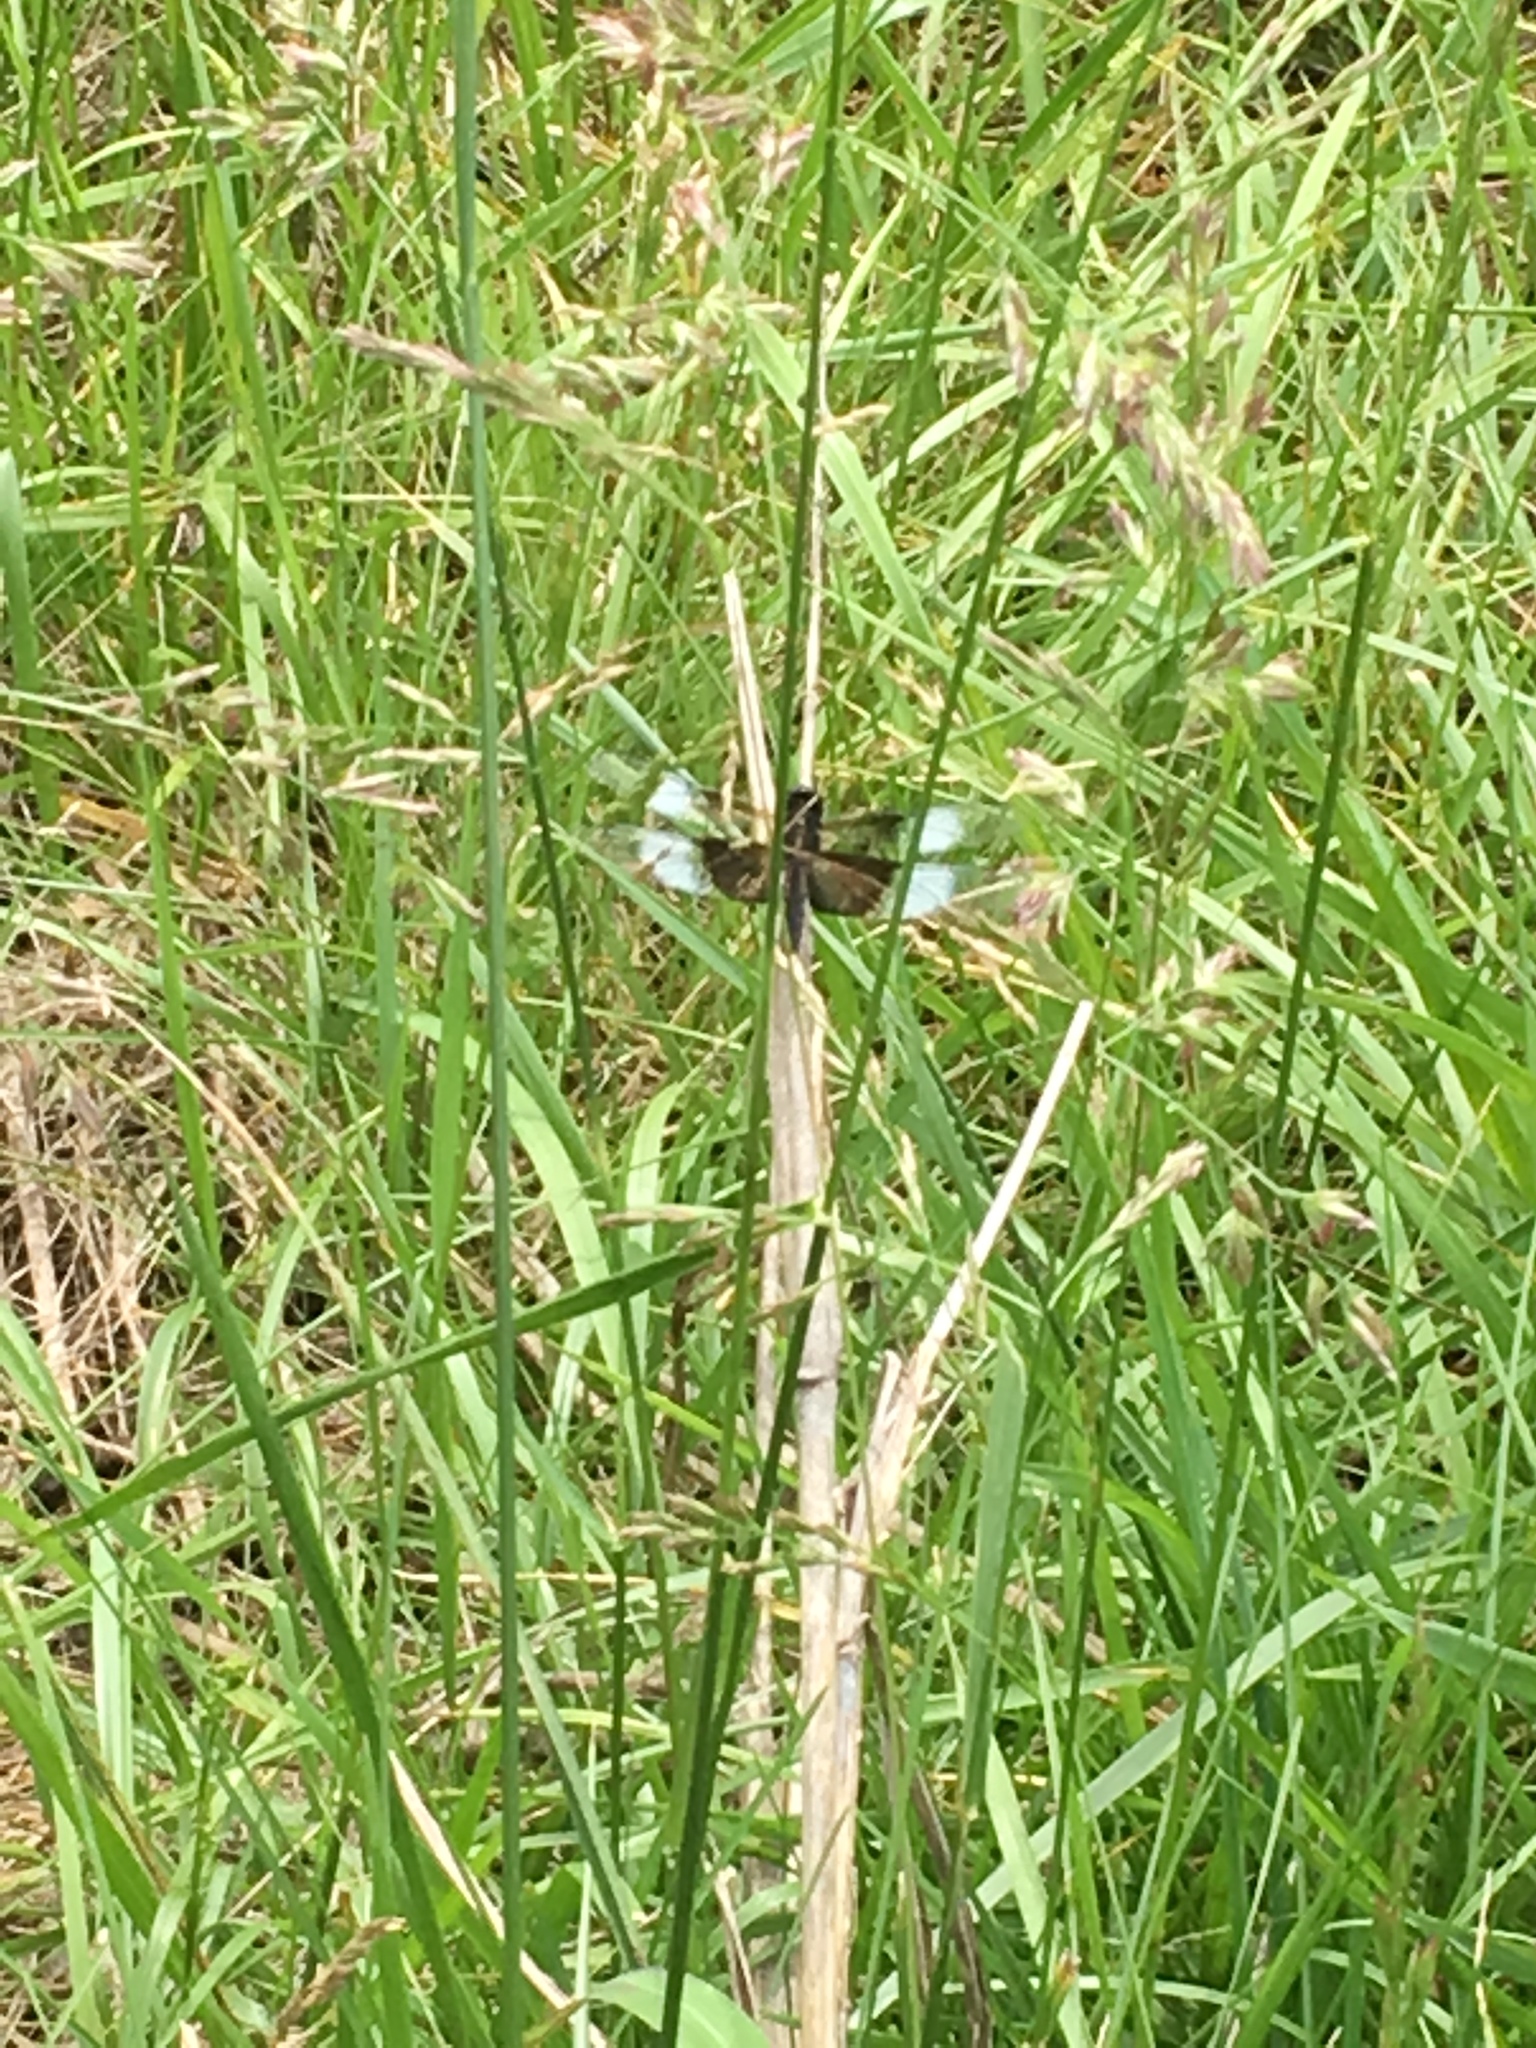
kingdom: Animalia
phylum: Arthropoda
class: Insecta
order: Odonata
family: Libellulidae
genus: Libellula
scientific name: Libellula luctuosa
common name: Widow skimmer
